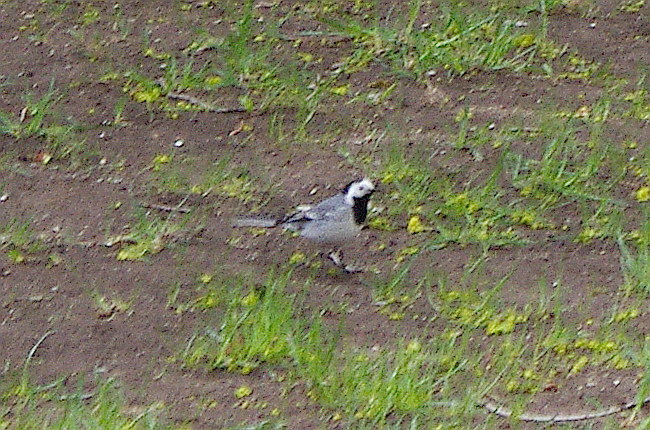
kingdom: Animalia
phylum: Chordata
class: Aves
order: Passeriformes
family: Motacillidae
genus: Motacilla
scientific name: Motacilla alba
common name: White wagtail
